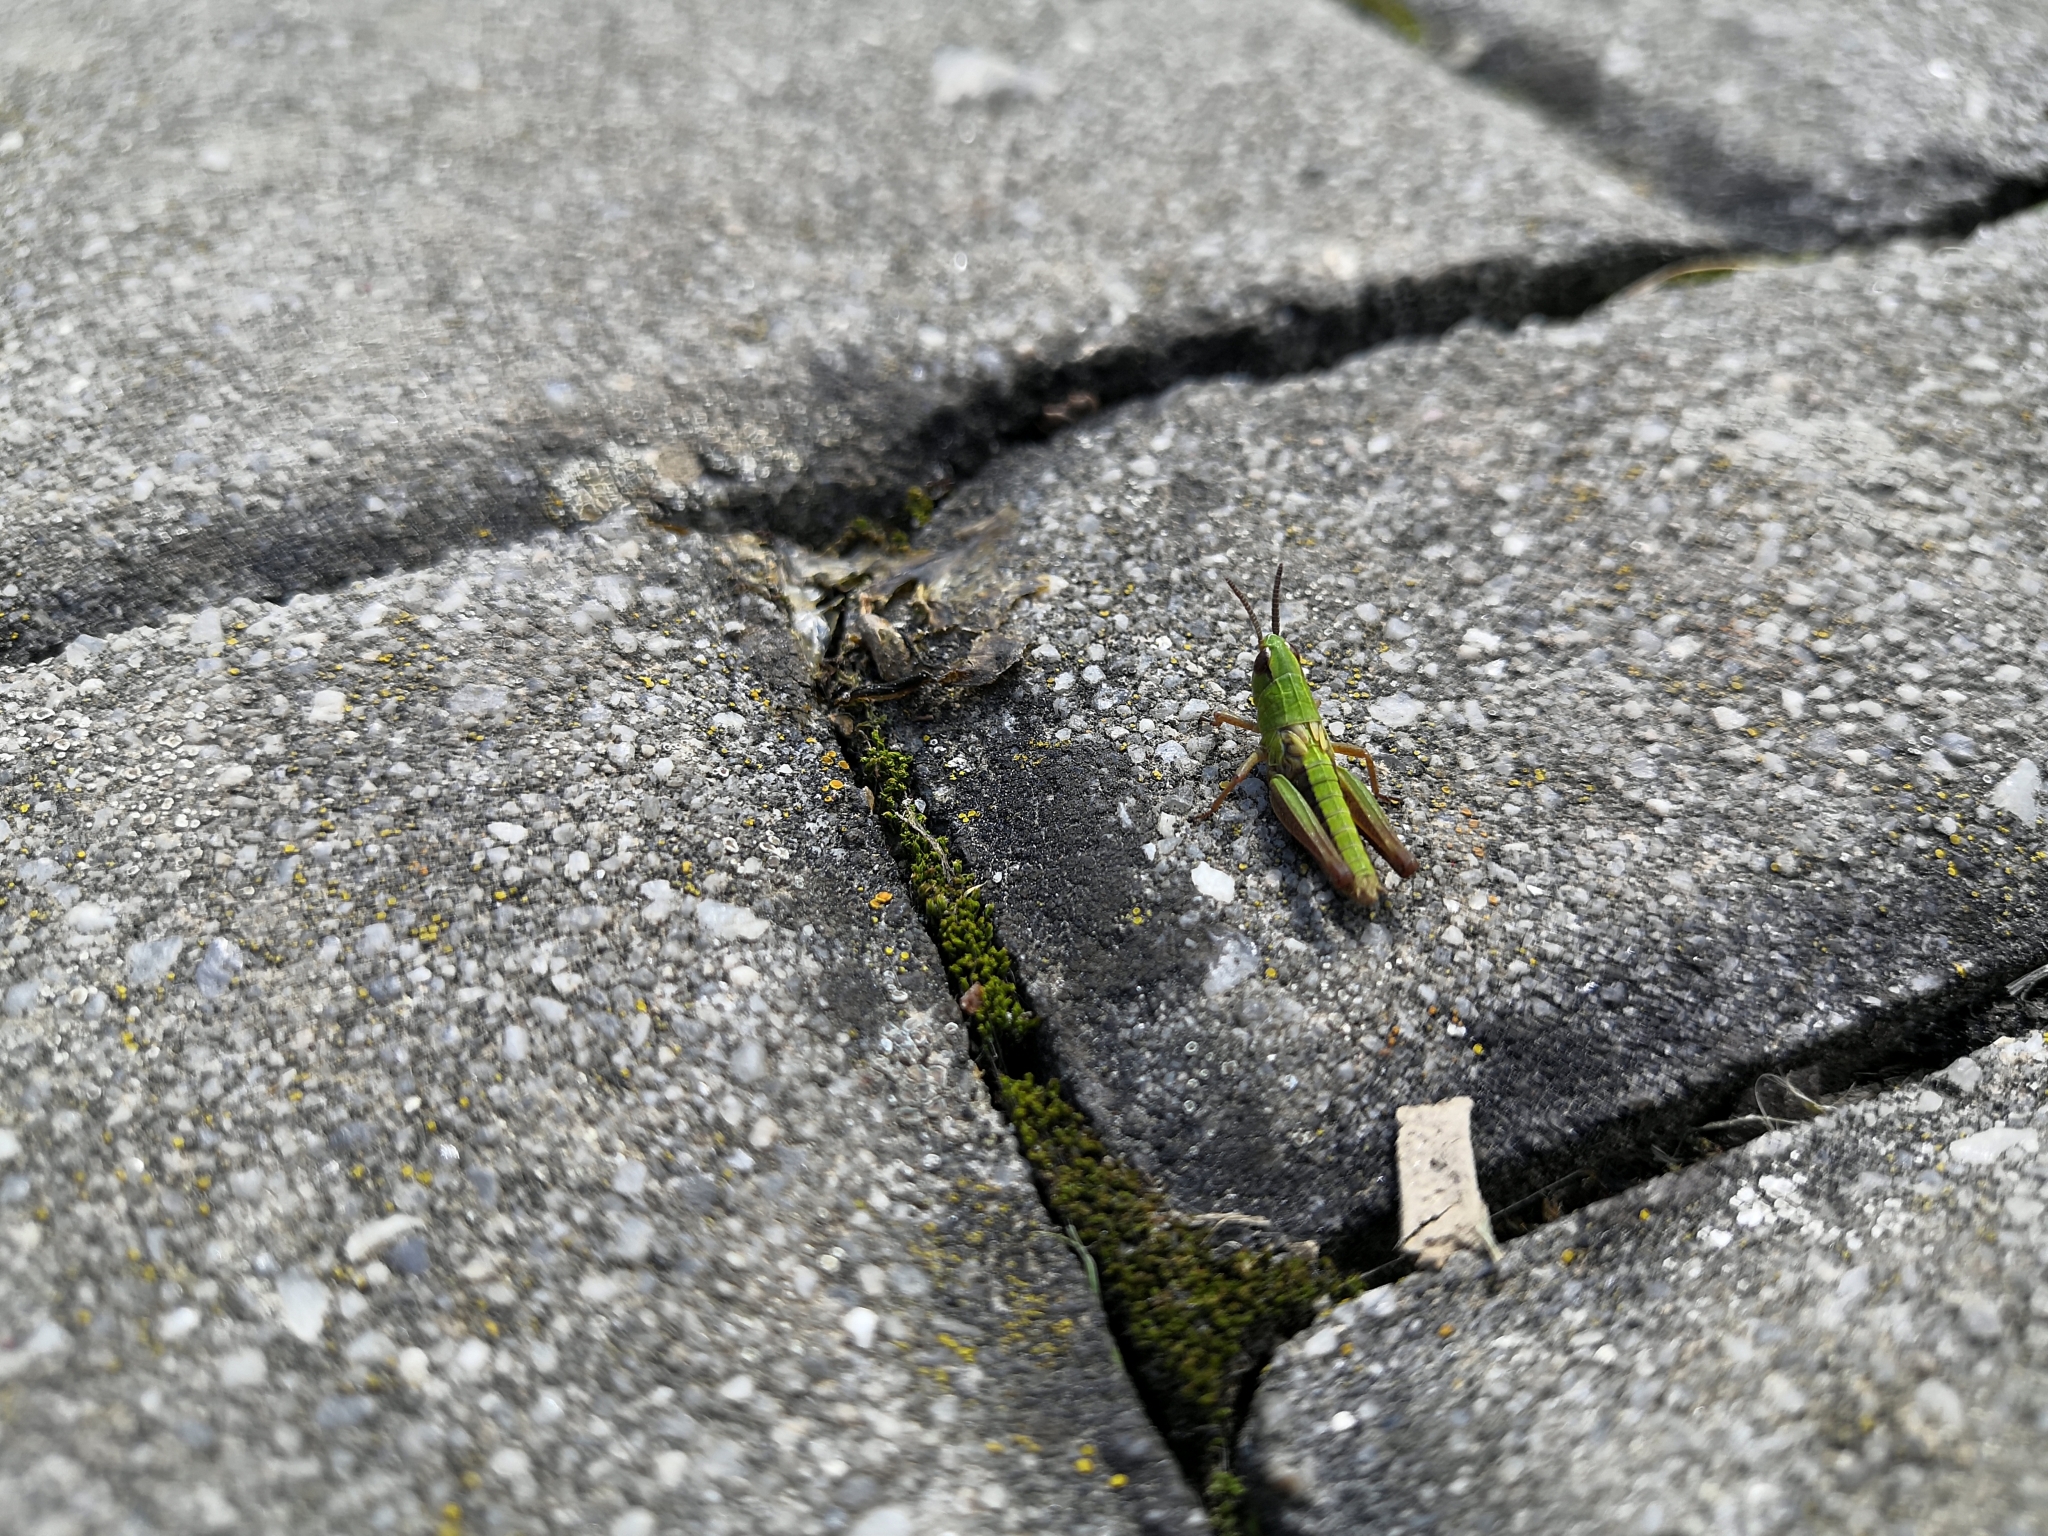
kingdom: Animalia
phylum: Arthropoda
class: Insecta
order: Orthoptera
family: Acrididae
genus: Pseudochorthippus
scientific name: Pseudochorthippus parallelus
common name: Meadow grasshopper
